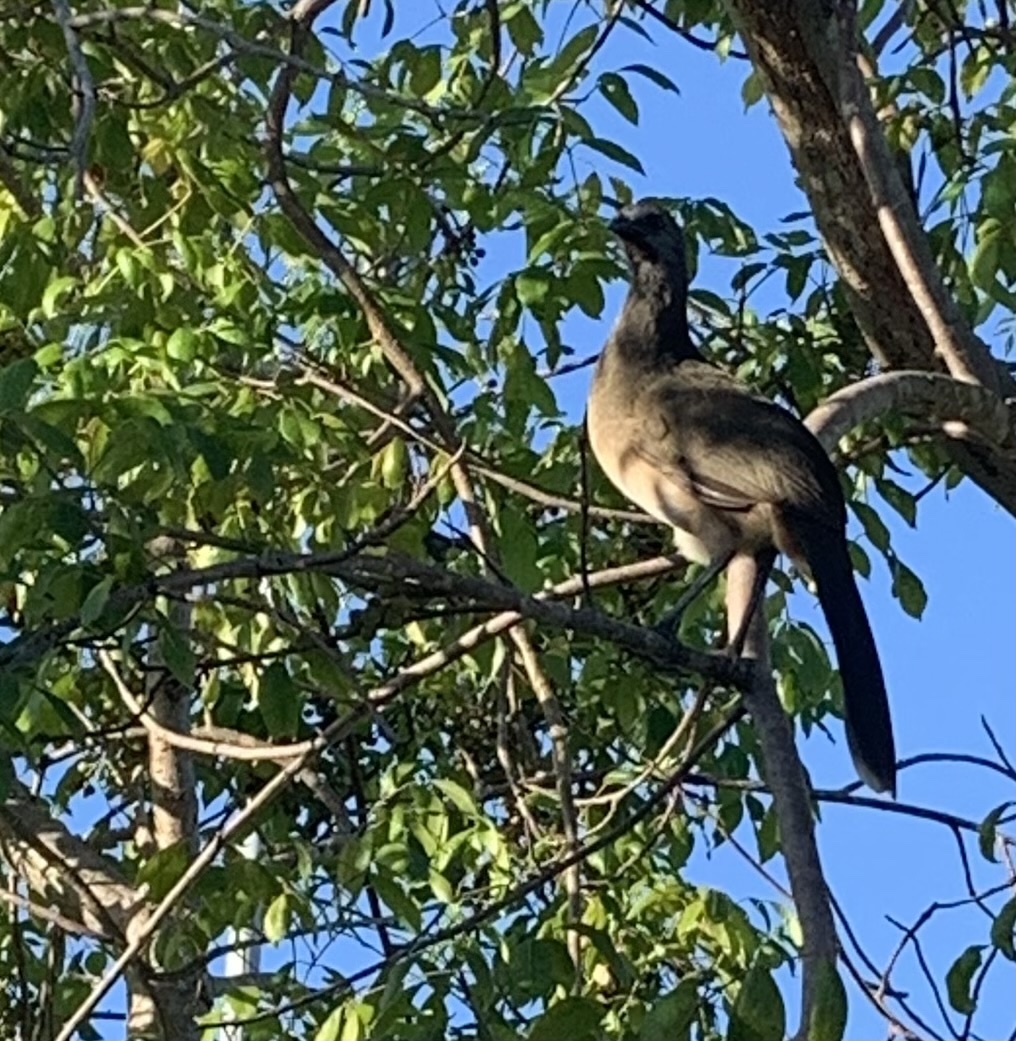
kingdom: Animalia
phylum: Chordata
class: Aves
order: Galliformes
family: Cracidae
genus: Ortalis
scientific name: Ortalis vetula
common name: Plain chachalaca
